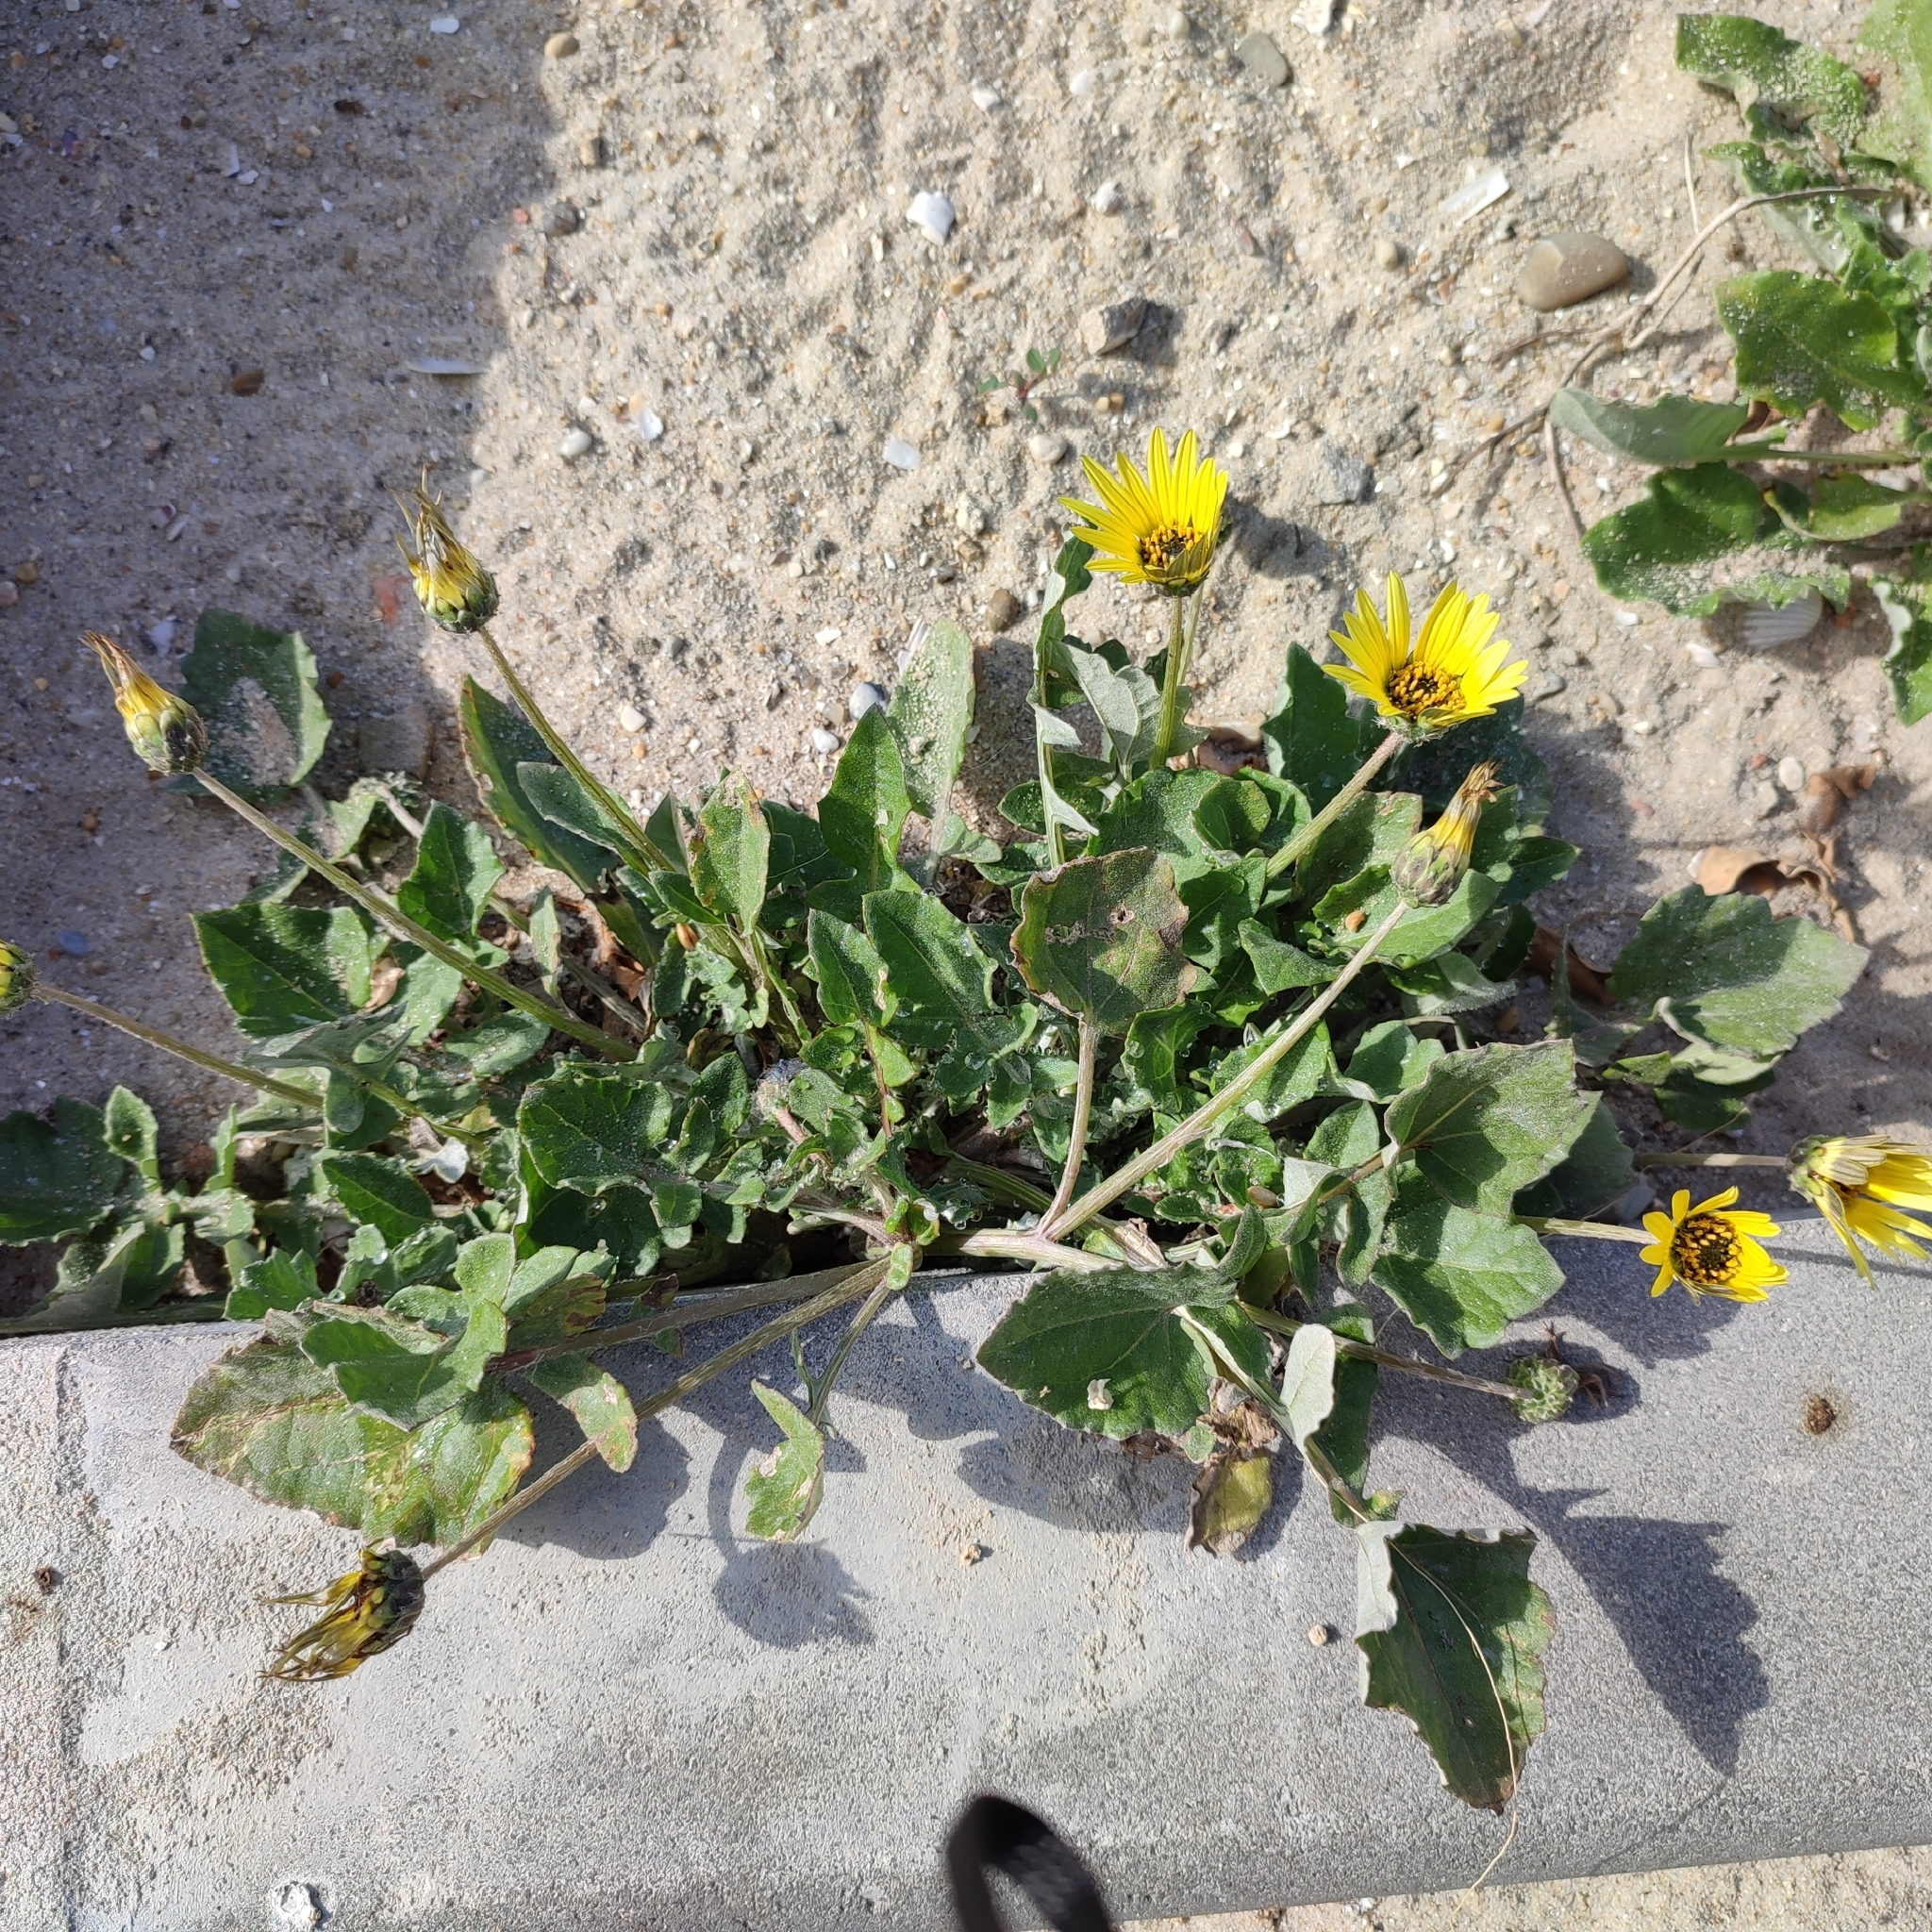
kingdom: Plantae
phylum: Tracheophyta
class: Magnoliopsida
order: Asterales
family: Asteraceae
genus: Arctotheca
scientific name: Arctotheca calendula
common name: Capeweed
